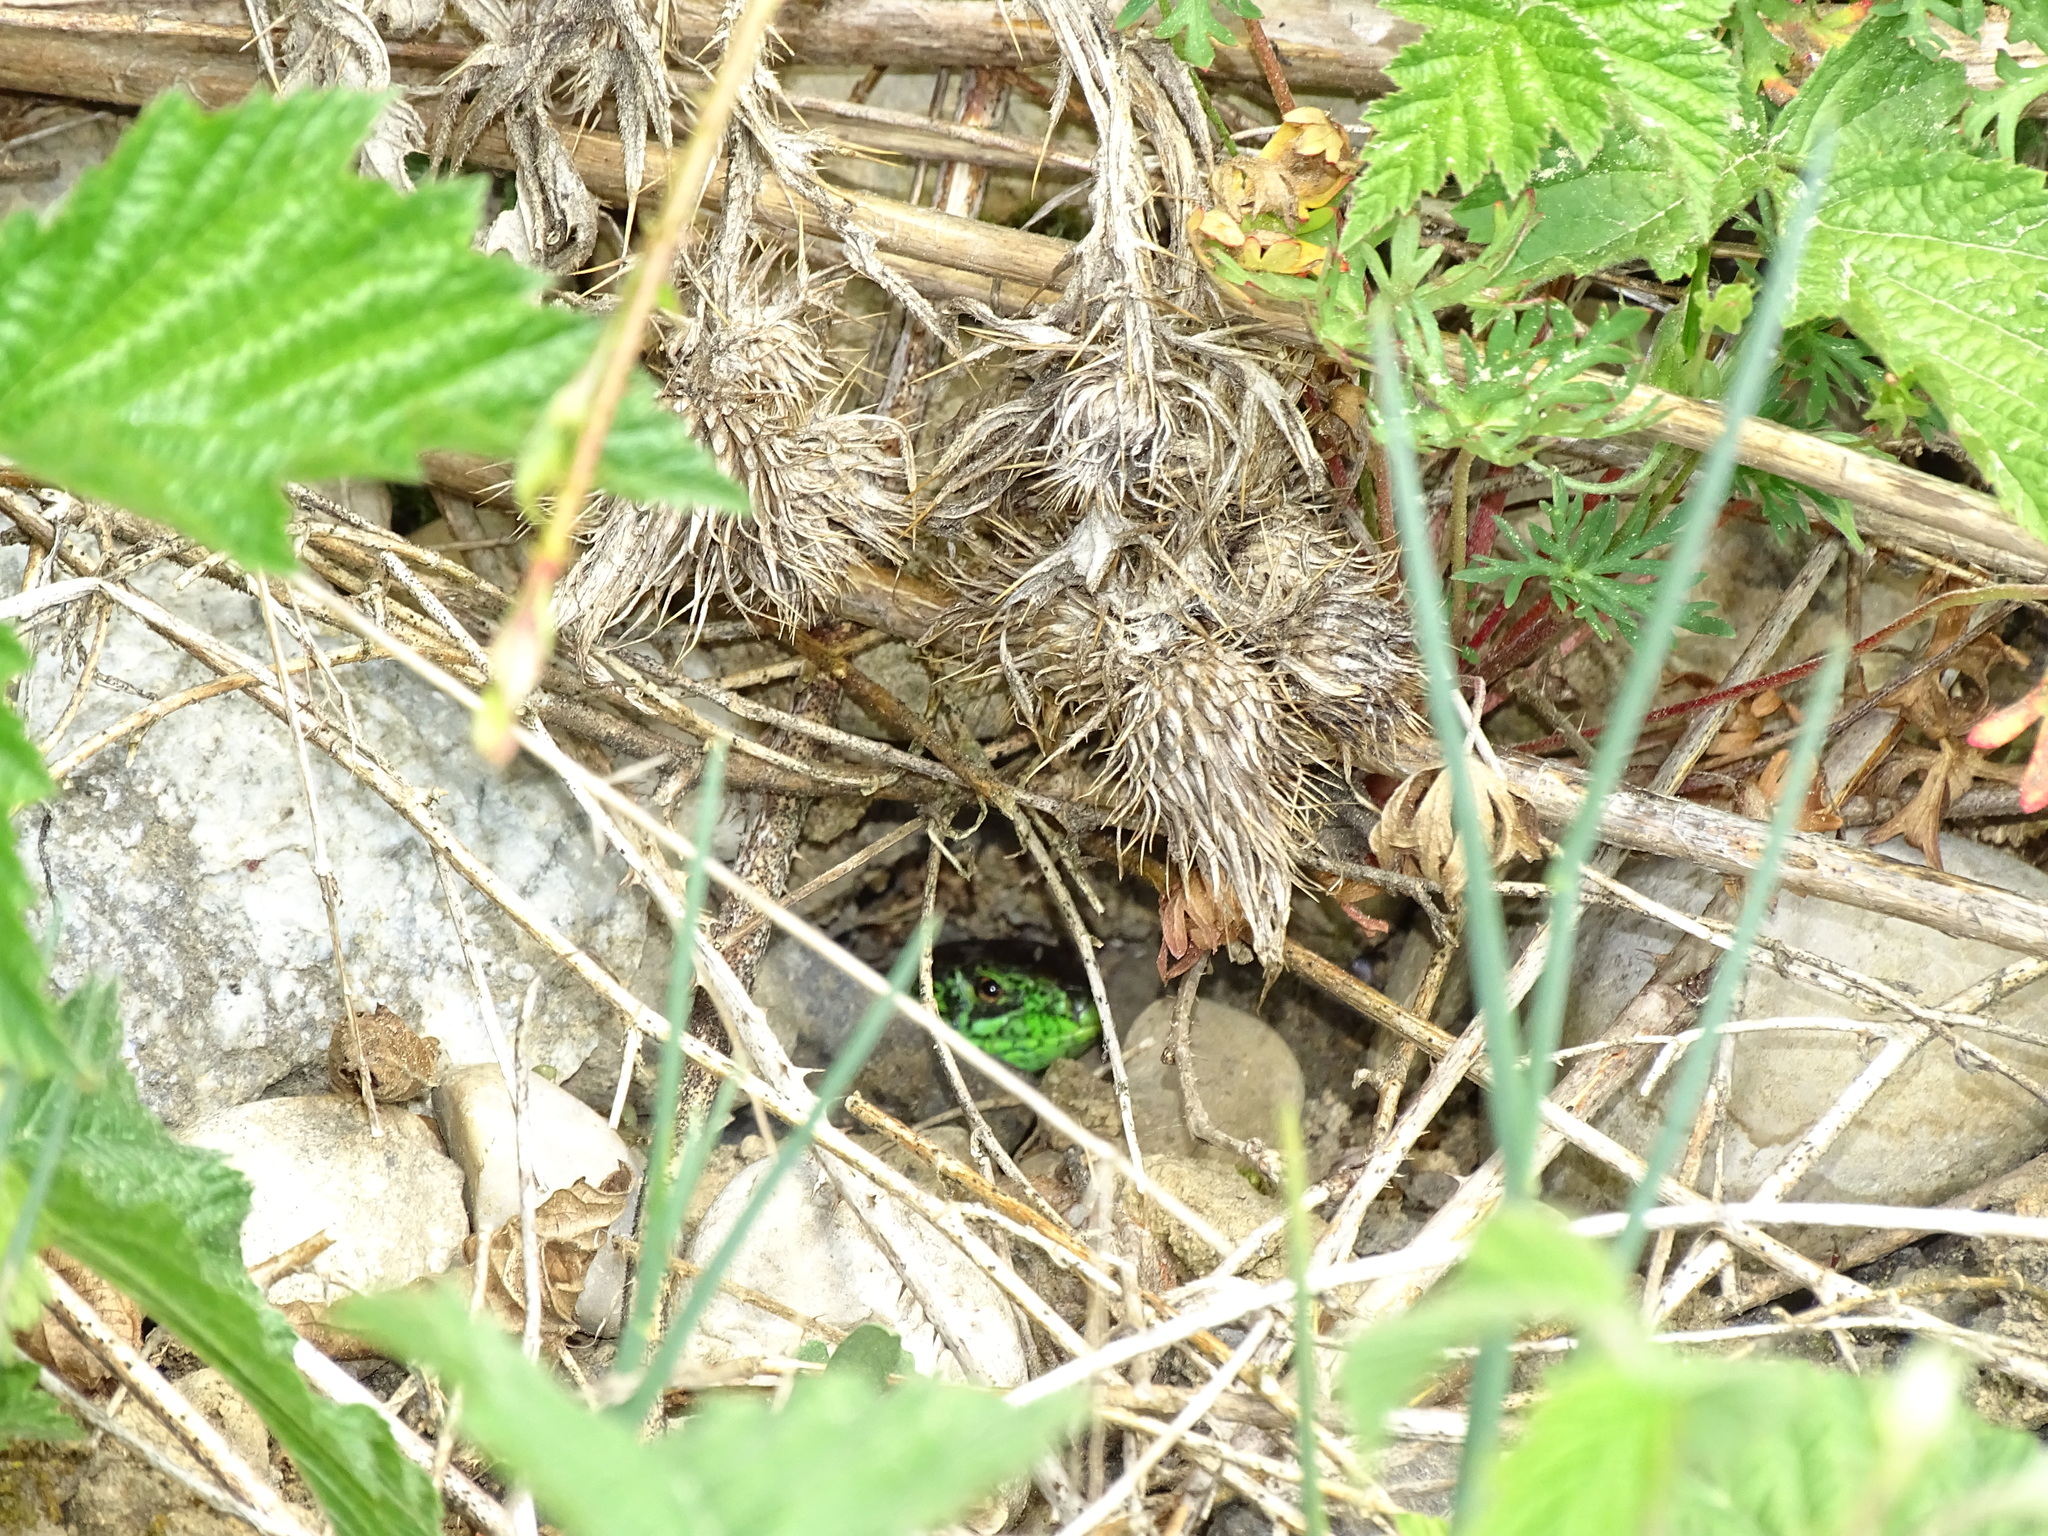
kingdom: Animalia
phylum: Chordata
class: Squamata
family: Lacertidae
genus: Lacerta
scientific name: Lacerta agilis
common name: Sand lizard
